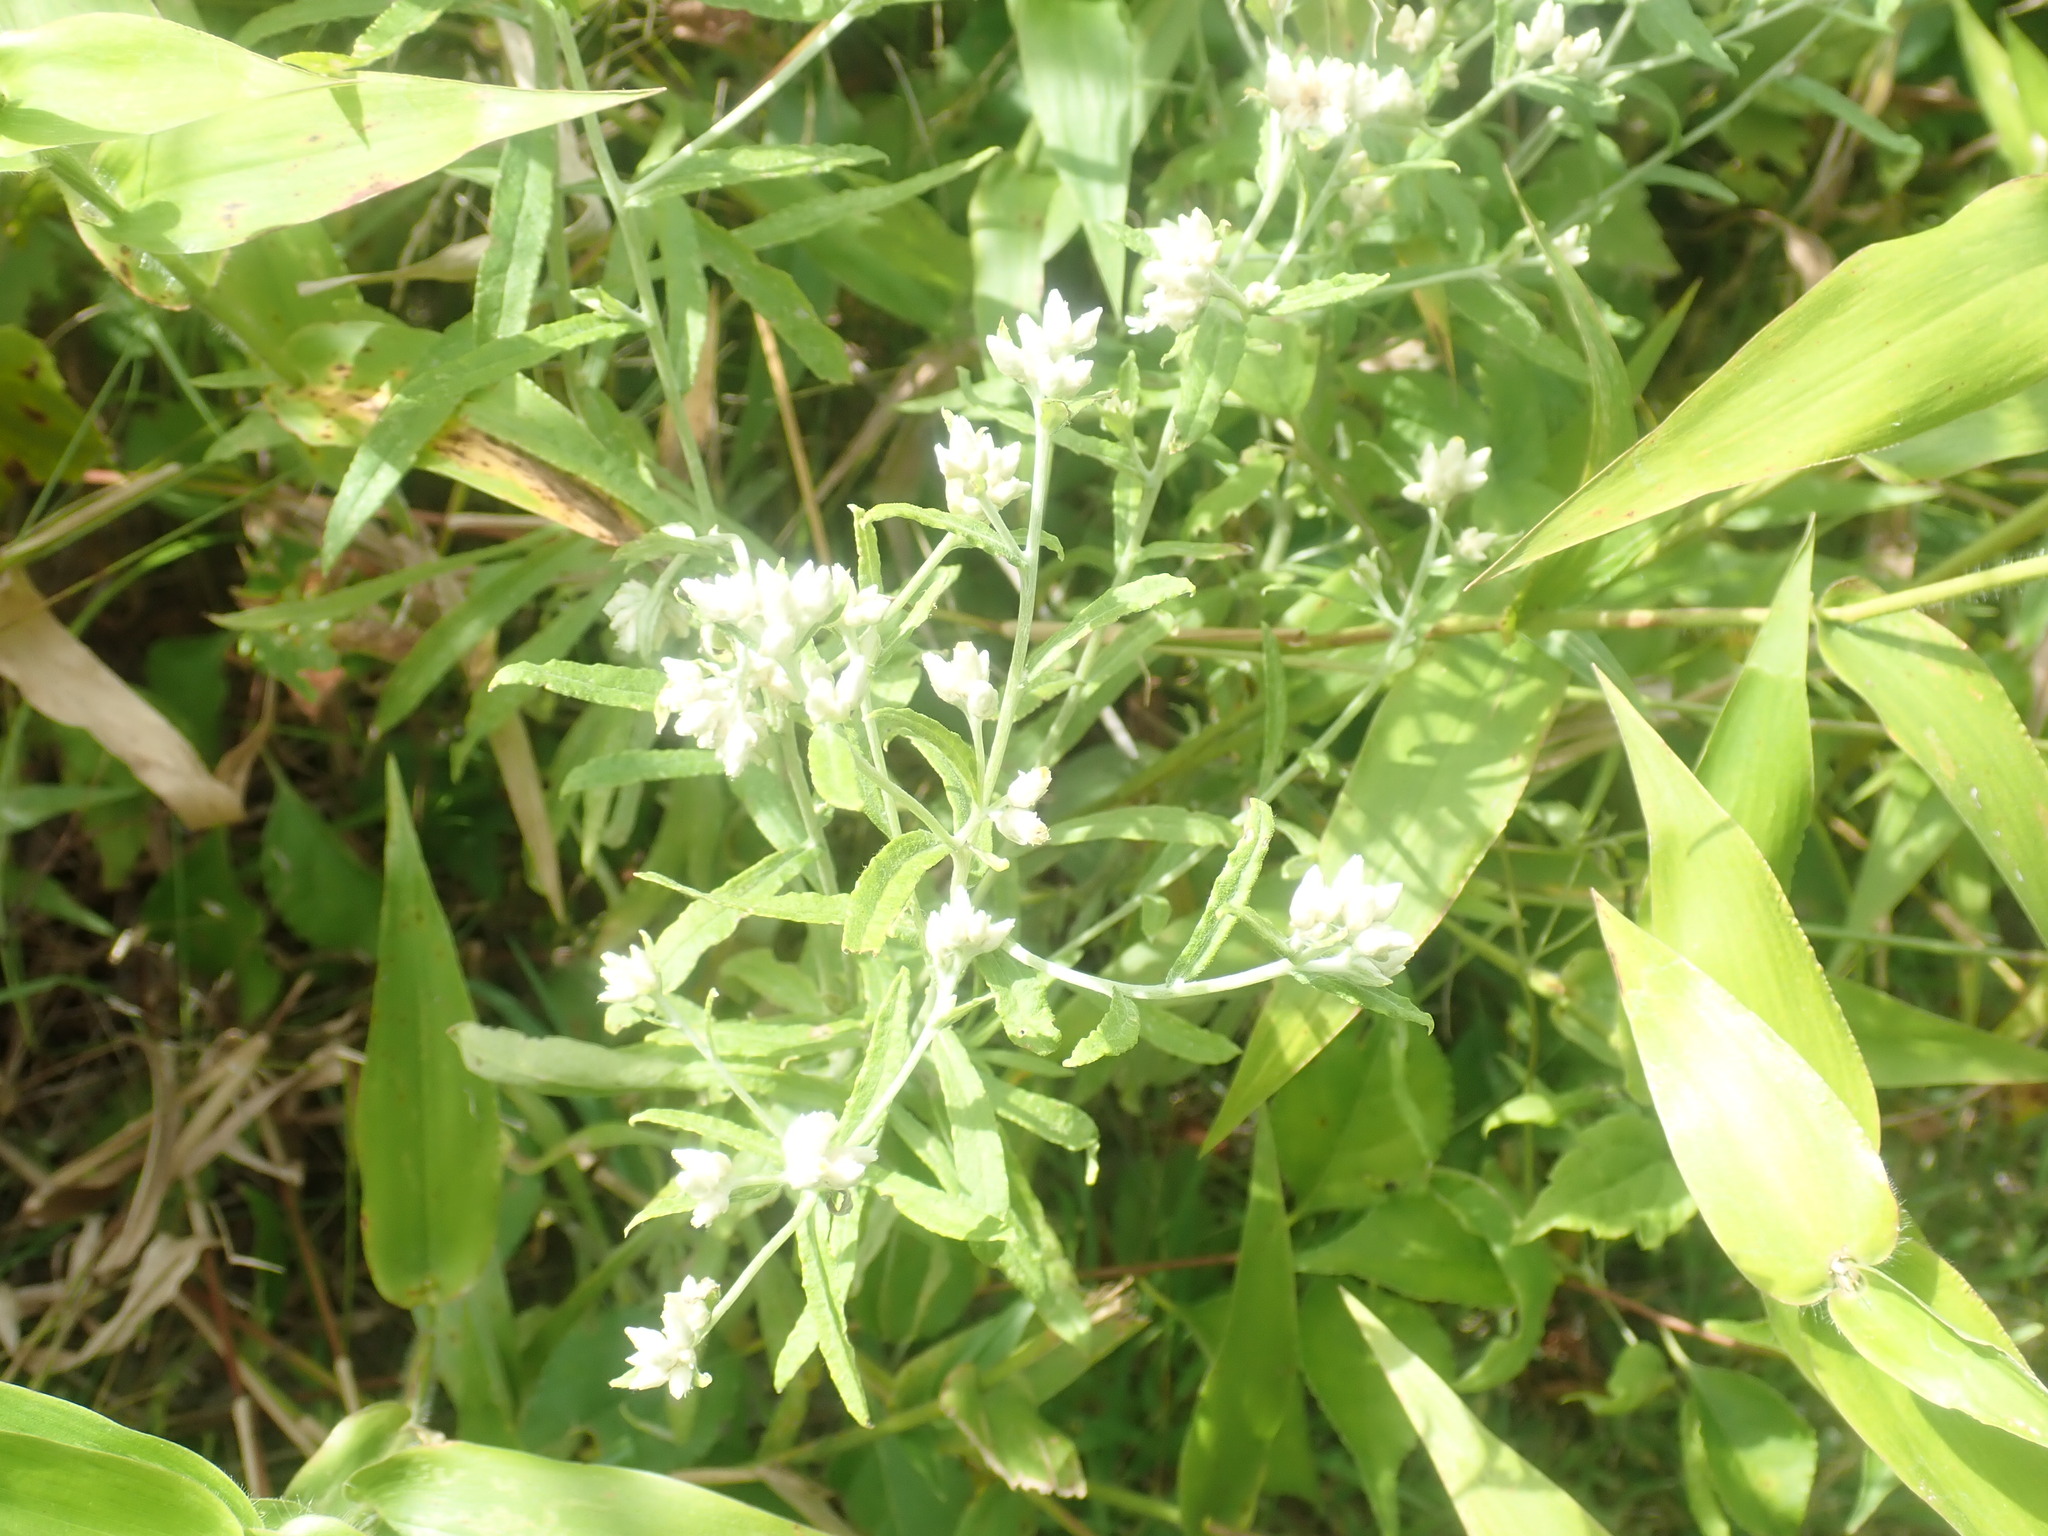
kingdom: Plantae
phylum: Tracheophyta
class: Magnoliopsida
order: Asterales
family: Asteraceae
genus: Pseudognaphalium
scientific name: Pseudognaphalium obtusifolium
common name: Eastern rabbit-tobacco
